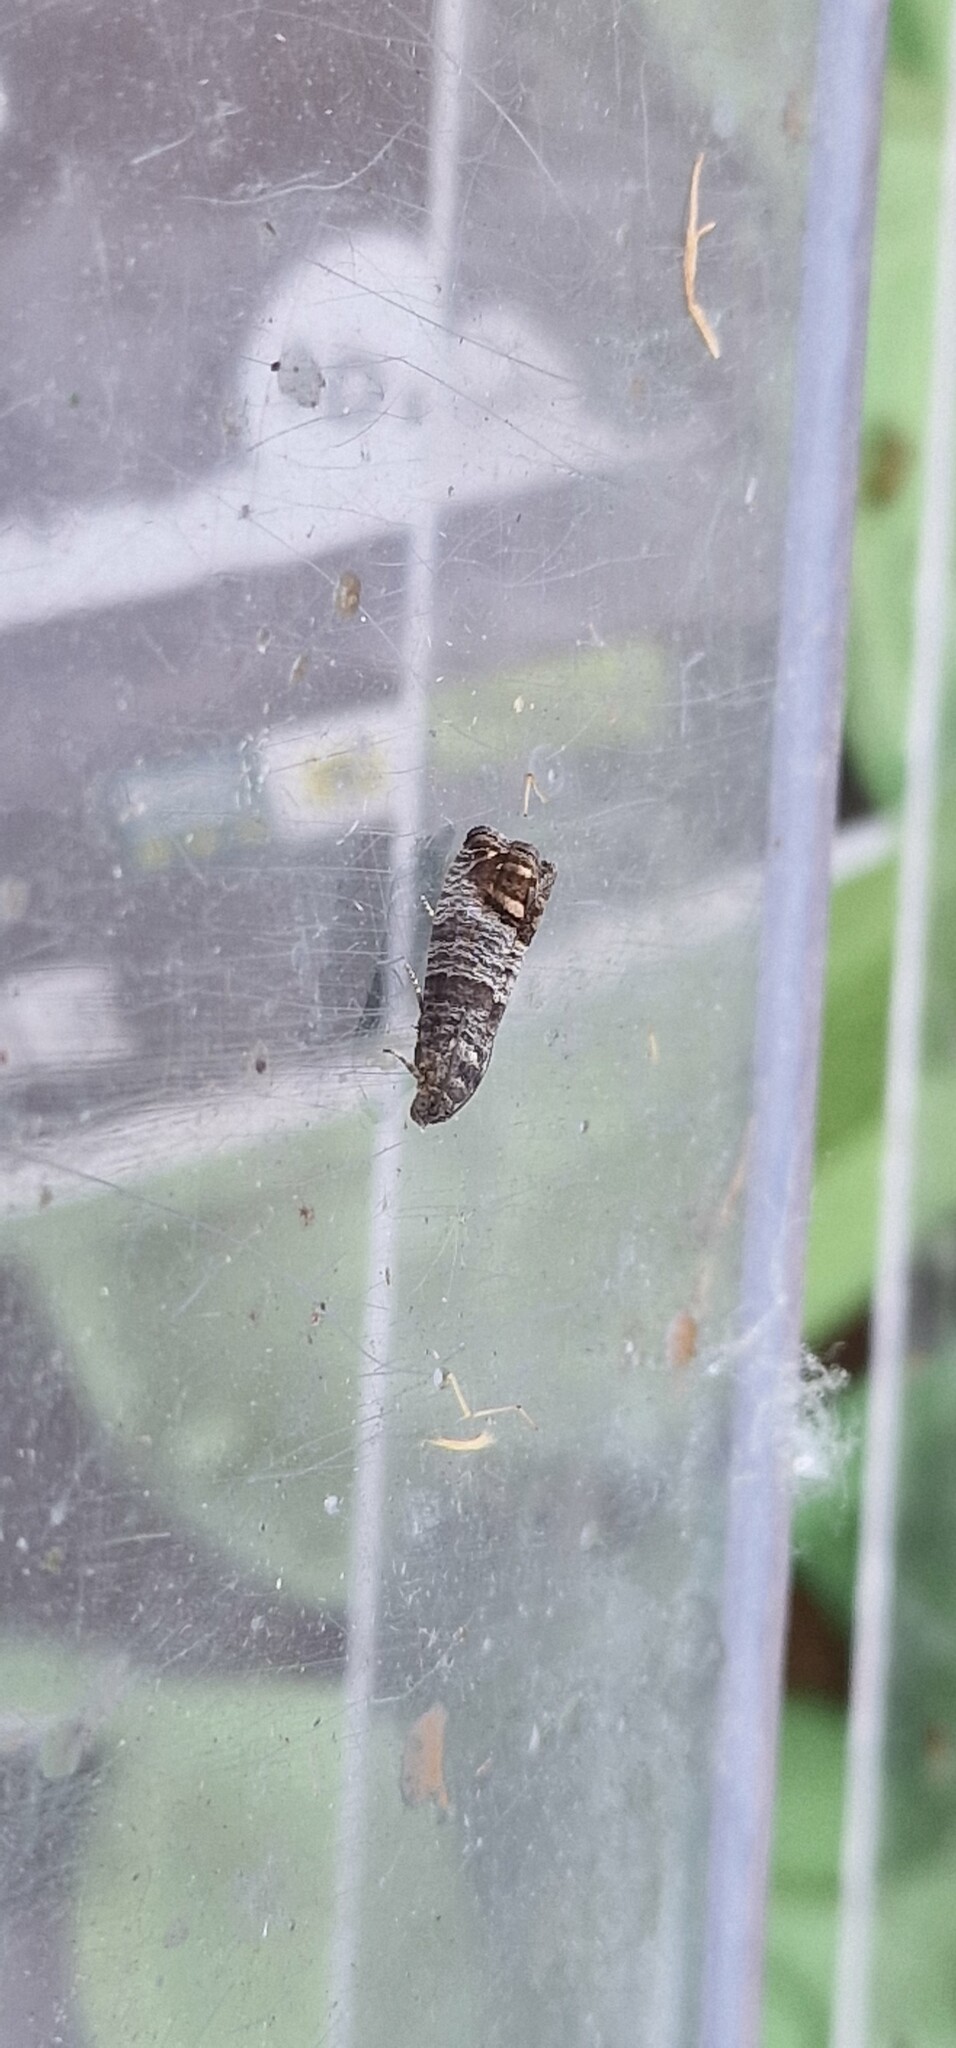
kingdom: Animalia
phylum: Arthropoda
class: Insecta
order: Lepidoptera
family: Tortricidae
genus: Cydia
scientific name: Cydia pomonella
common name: Codling moth
